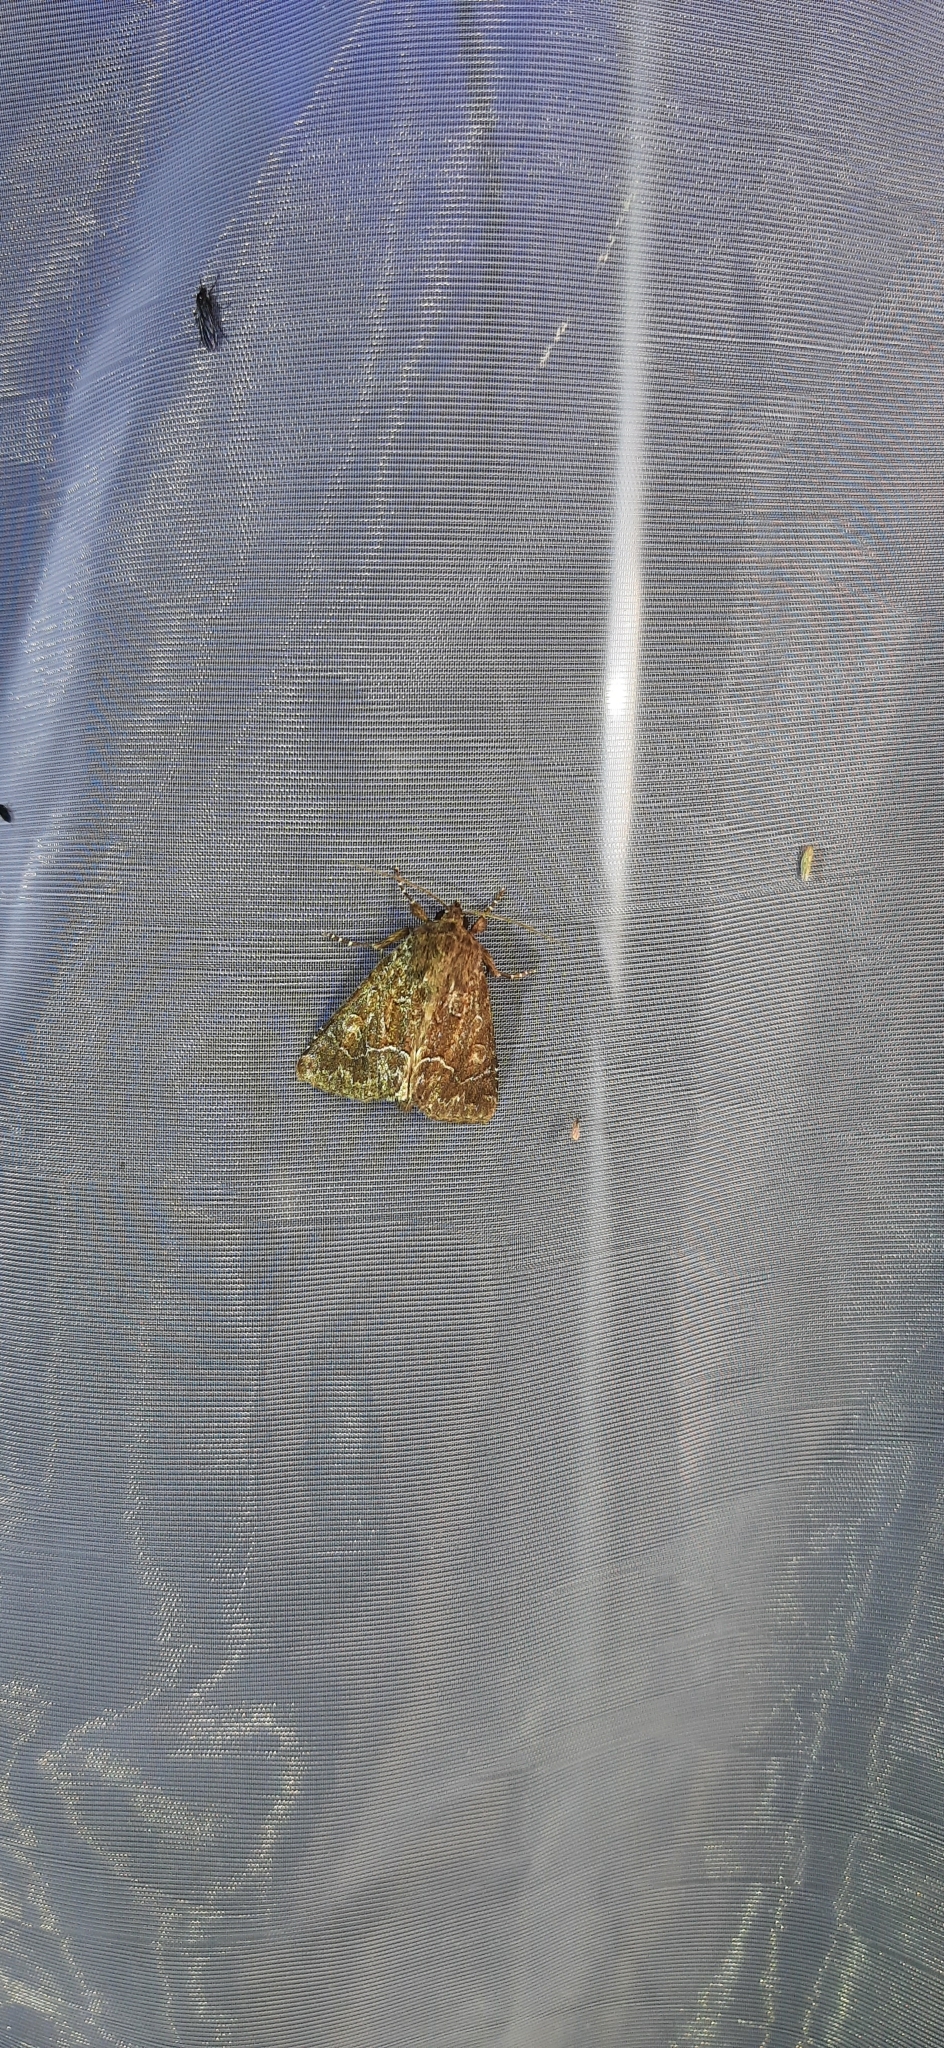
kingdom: Animalia
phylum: Arthropoda
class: Insecta
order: Lepidoptera
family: Noctuidae
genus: Thalpophila
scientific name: Thalpophila matura
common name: Straw underwing
